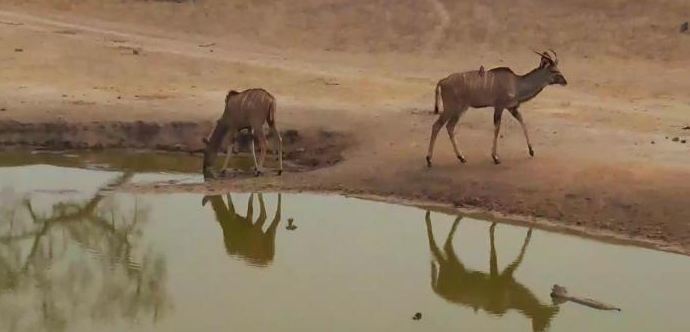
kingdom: Animalia
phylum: Chordata
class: Mammalia
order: Artiodactyla
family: Bovidae
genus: Tragelaphus
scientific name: Tragelaphus strepsiceros
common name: Greater kudu
